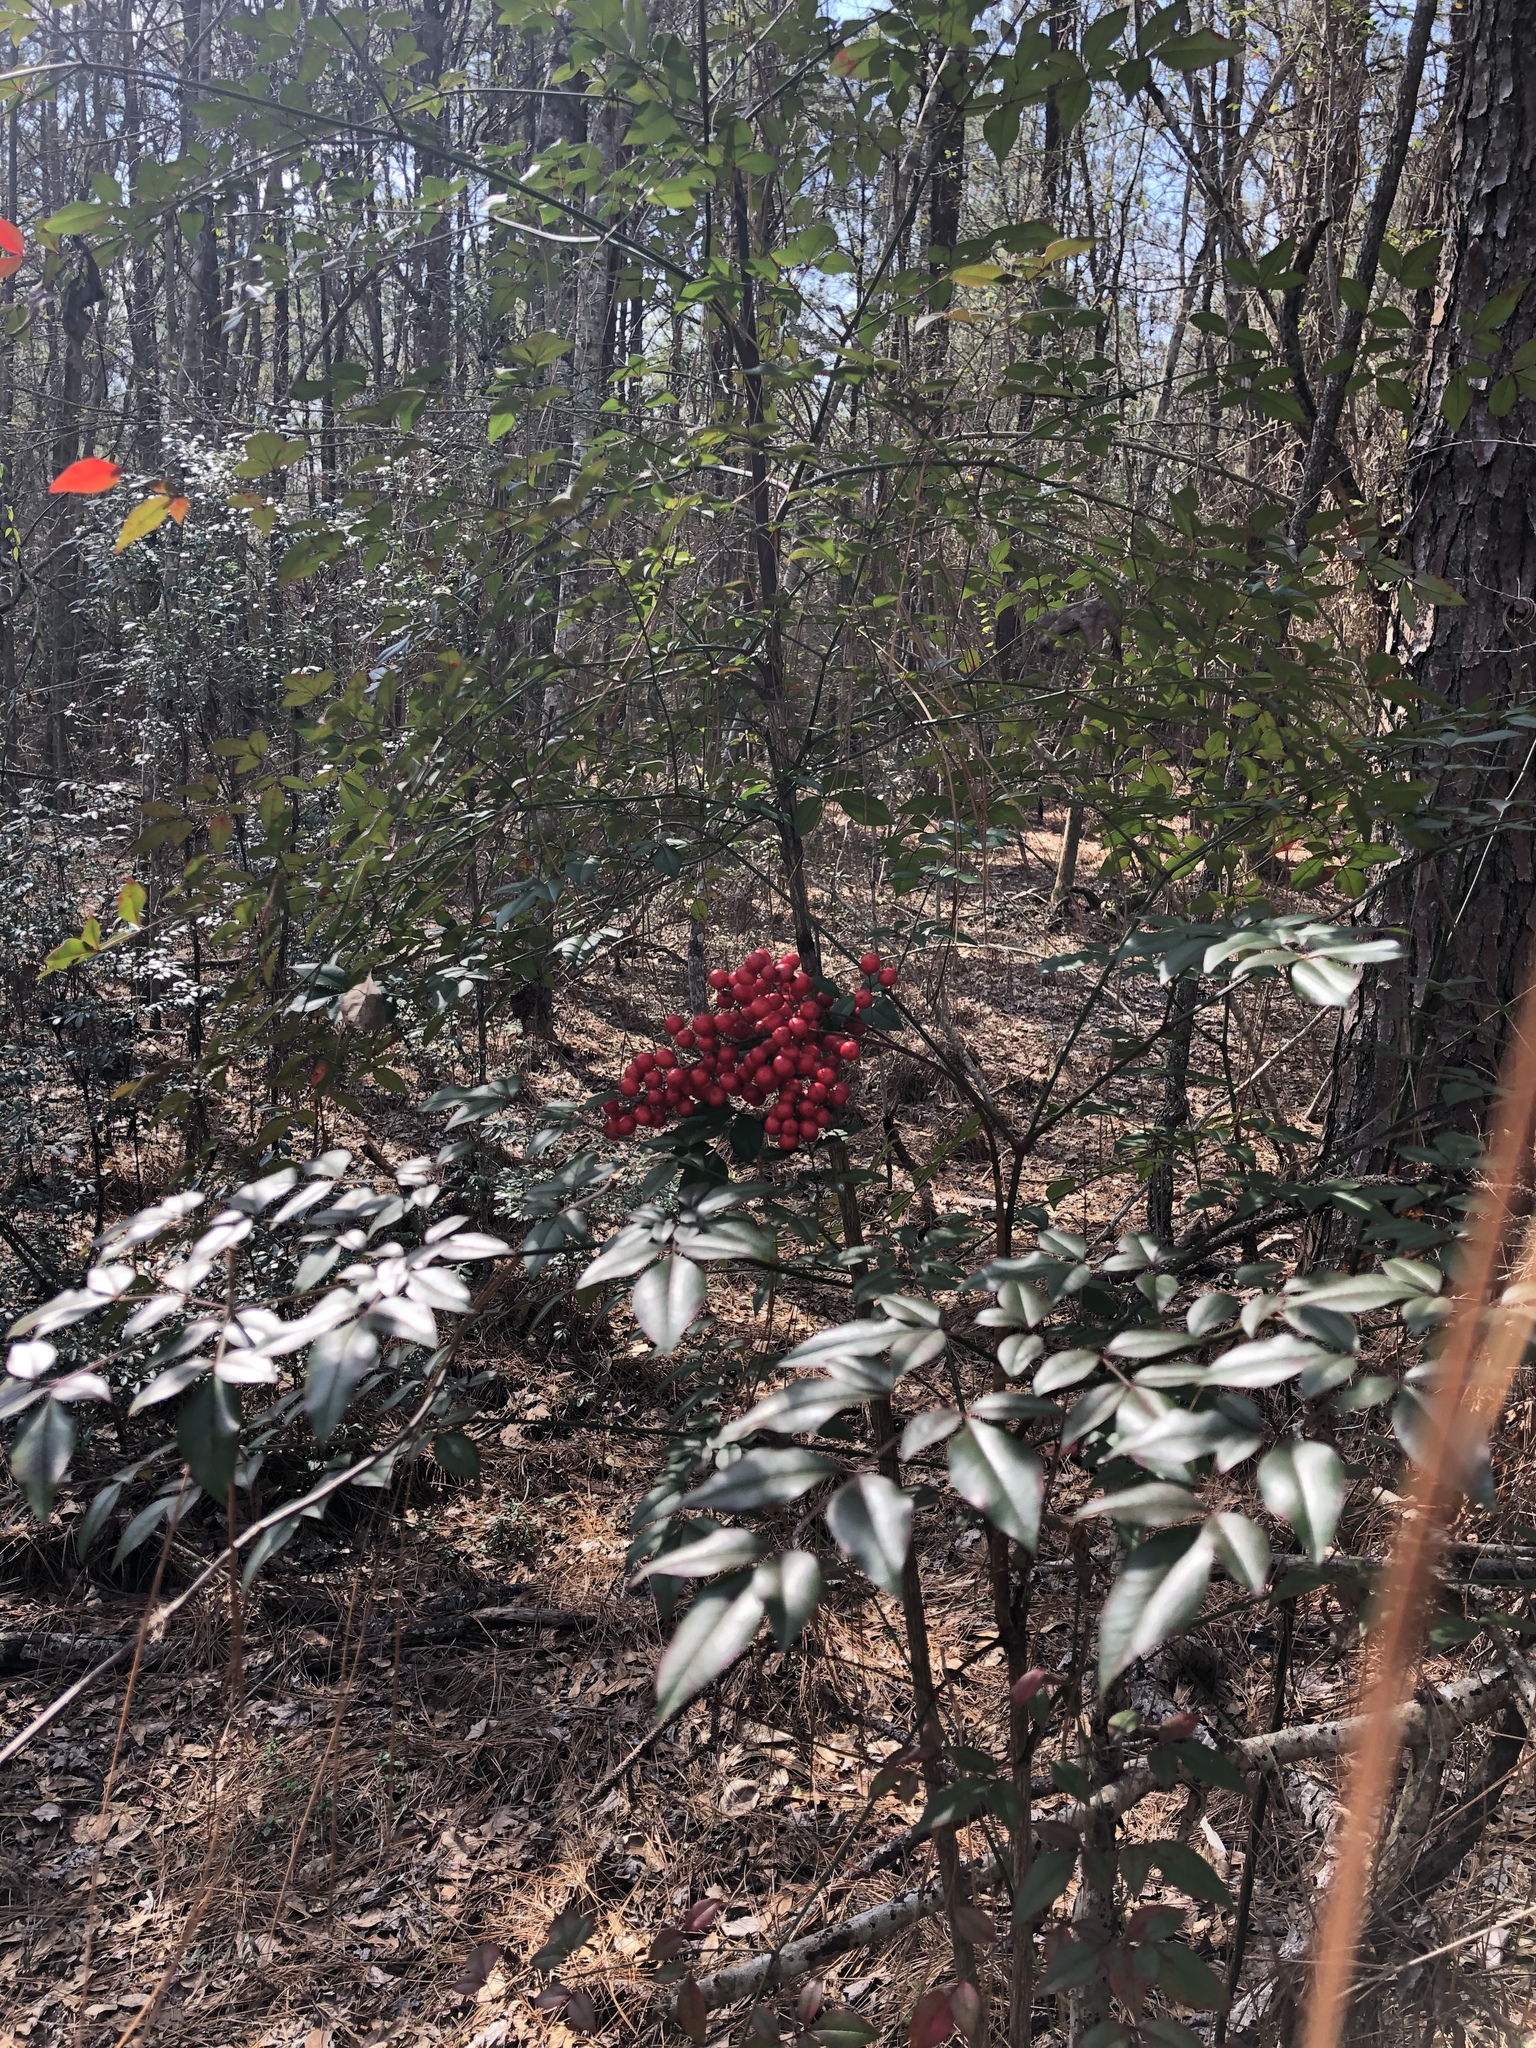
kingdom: Plantae
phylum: Tracheophyta
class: Magnoliopsida
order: Ranunculales
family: Berberidaceae
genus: Nandina
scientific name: Nandina domestica
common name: Sacred bamboo
